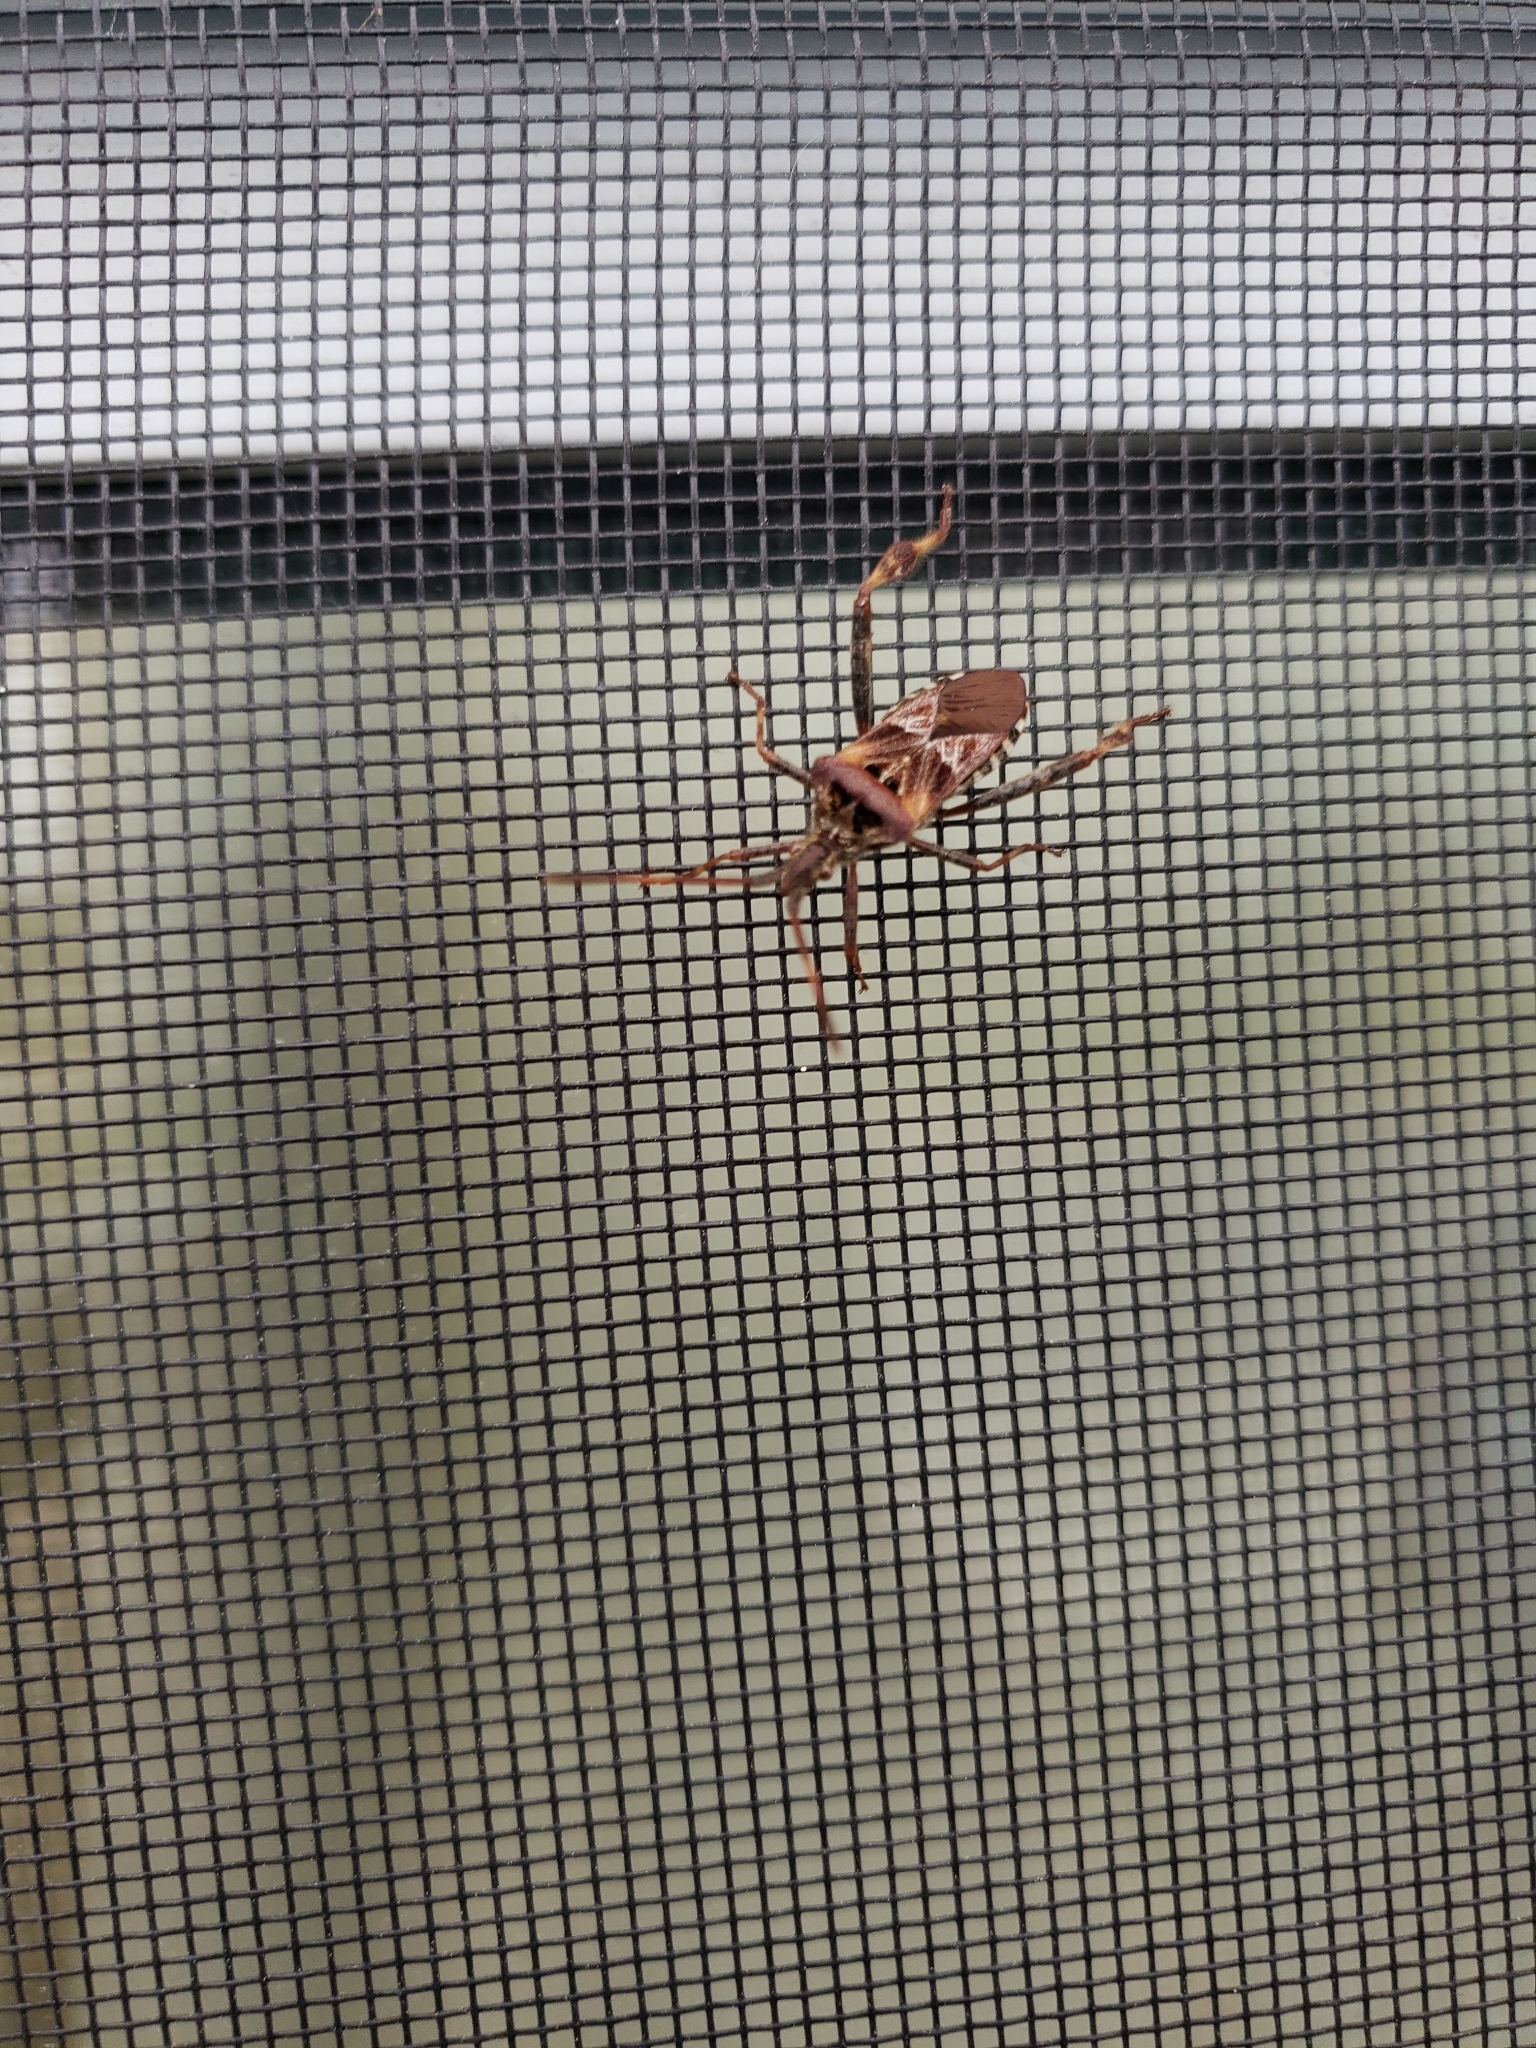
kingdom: Animalia
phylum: Arthropoda
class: Insecta
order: Hemiptera
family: Coreidae
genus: Leptoglossus
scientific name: Leptoglossus occidentalis
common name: Western conifer-seed bug
